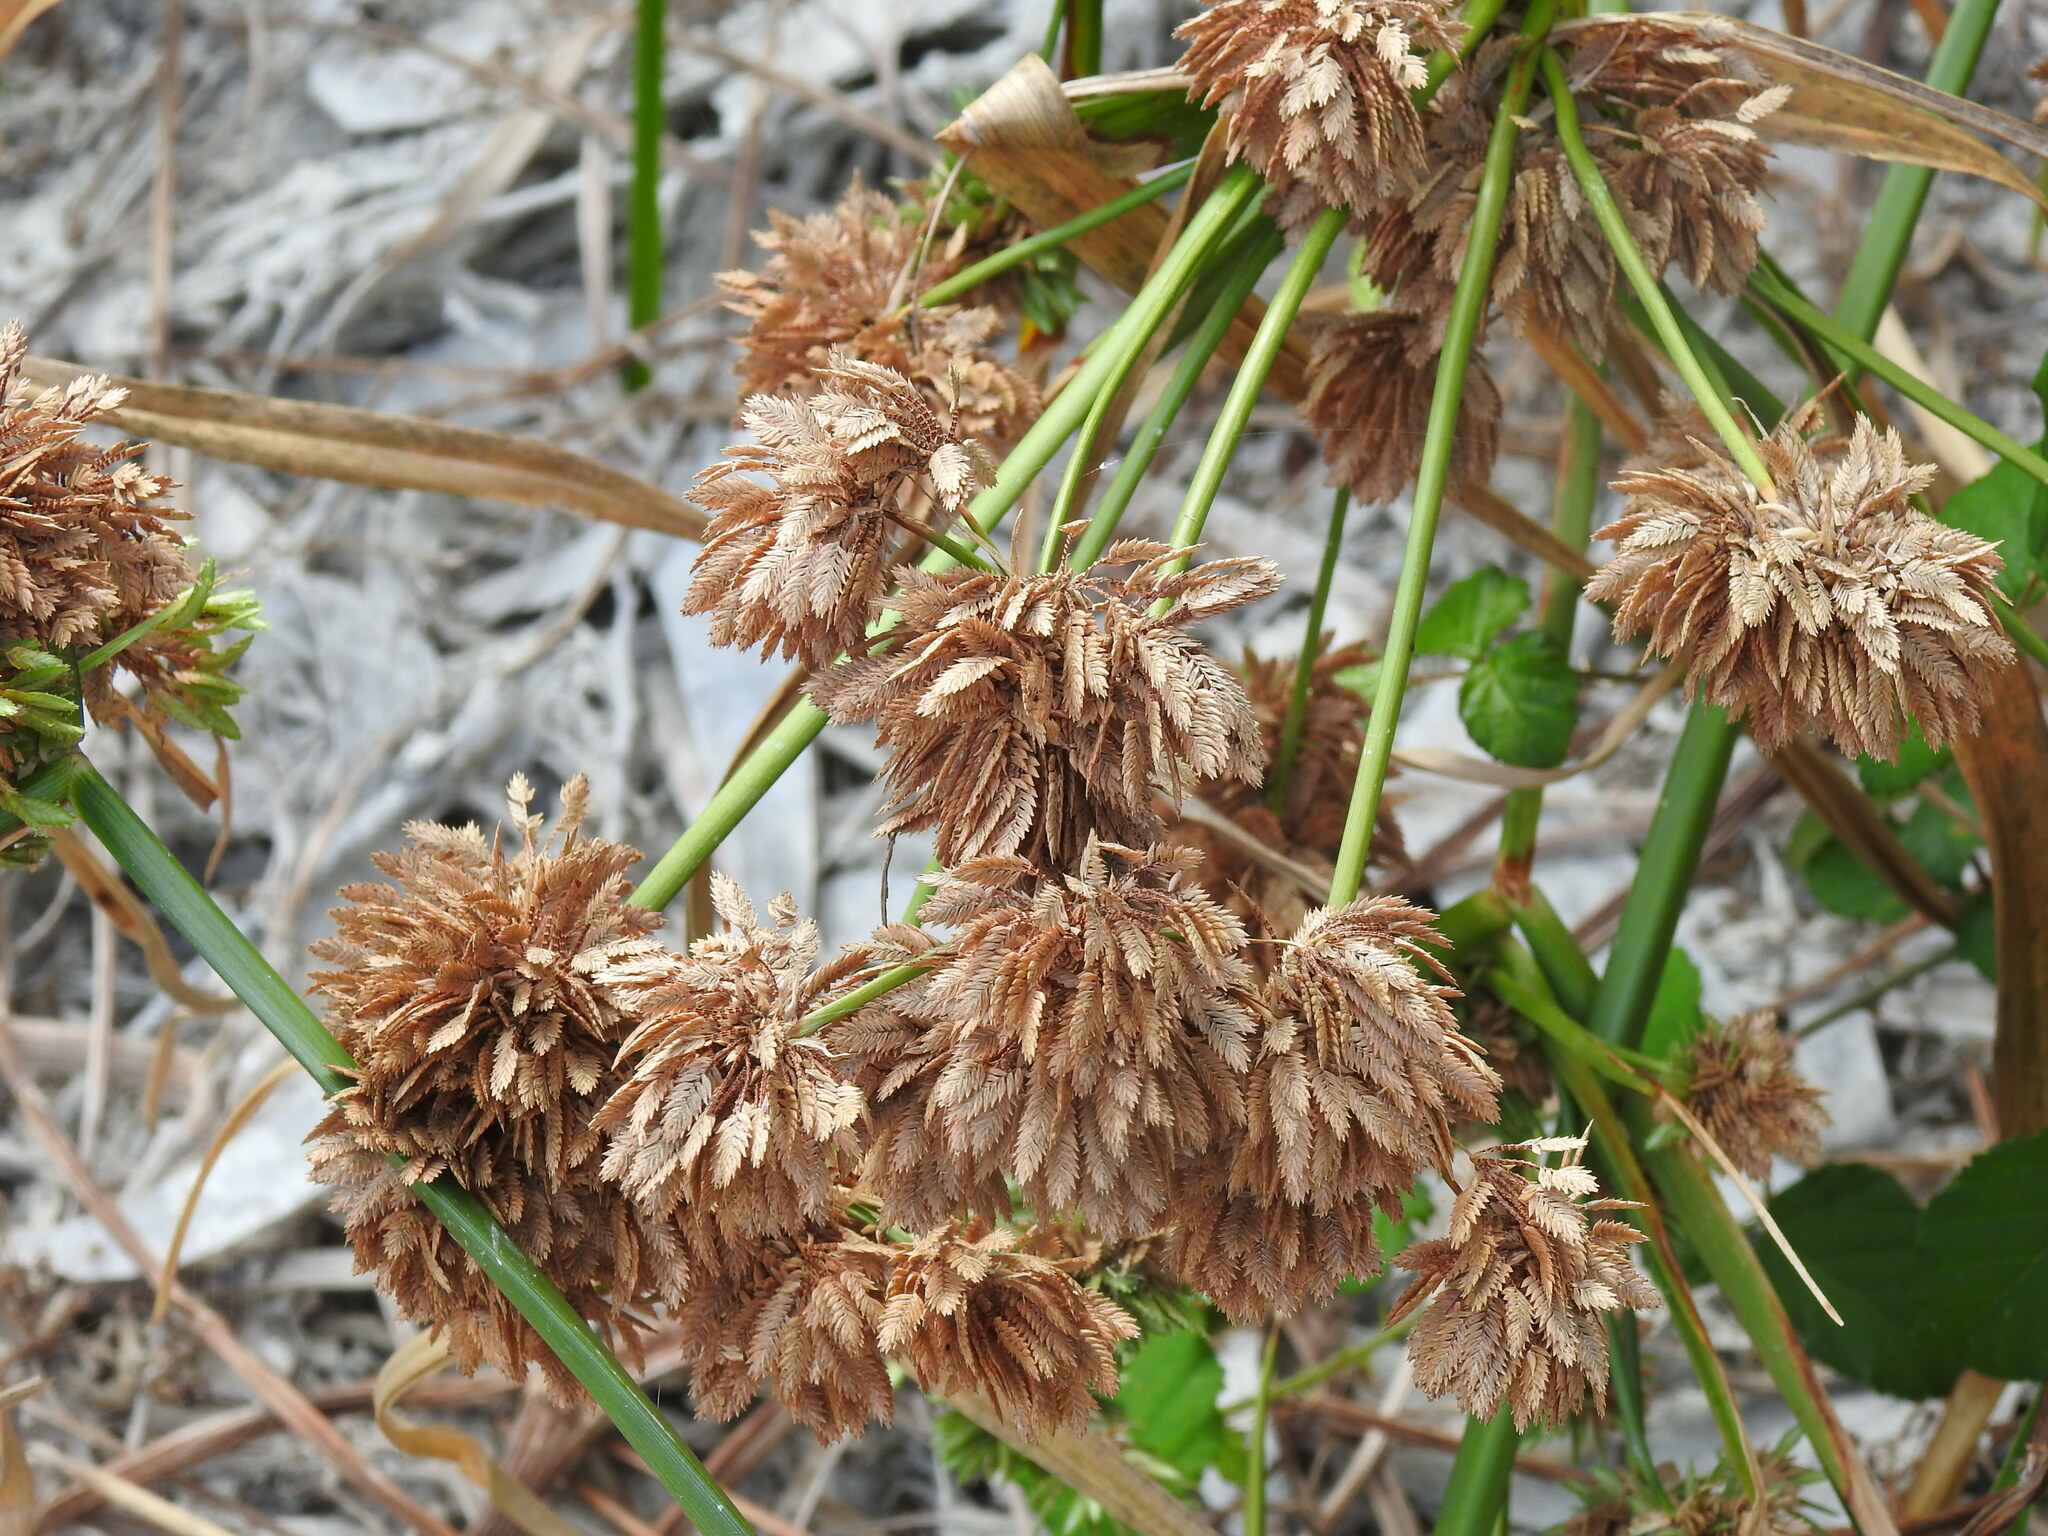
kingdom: Plantae
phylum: Tracheophyta
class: Liliopsida
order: Poales
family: Cyperaceae
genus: Cyperus
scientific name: Cyperus eragrostis
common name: Tall flatsedge
